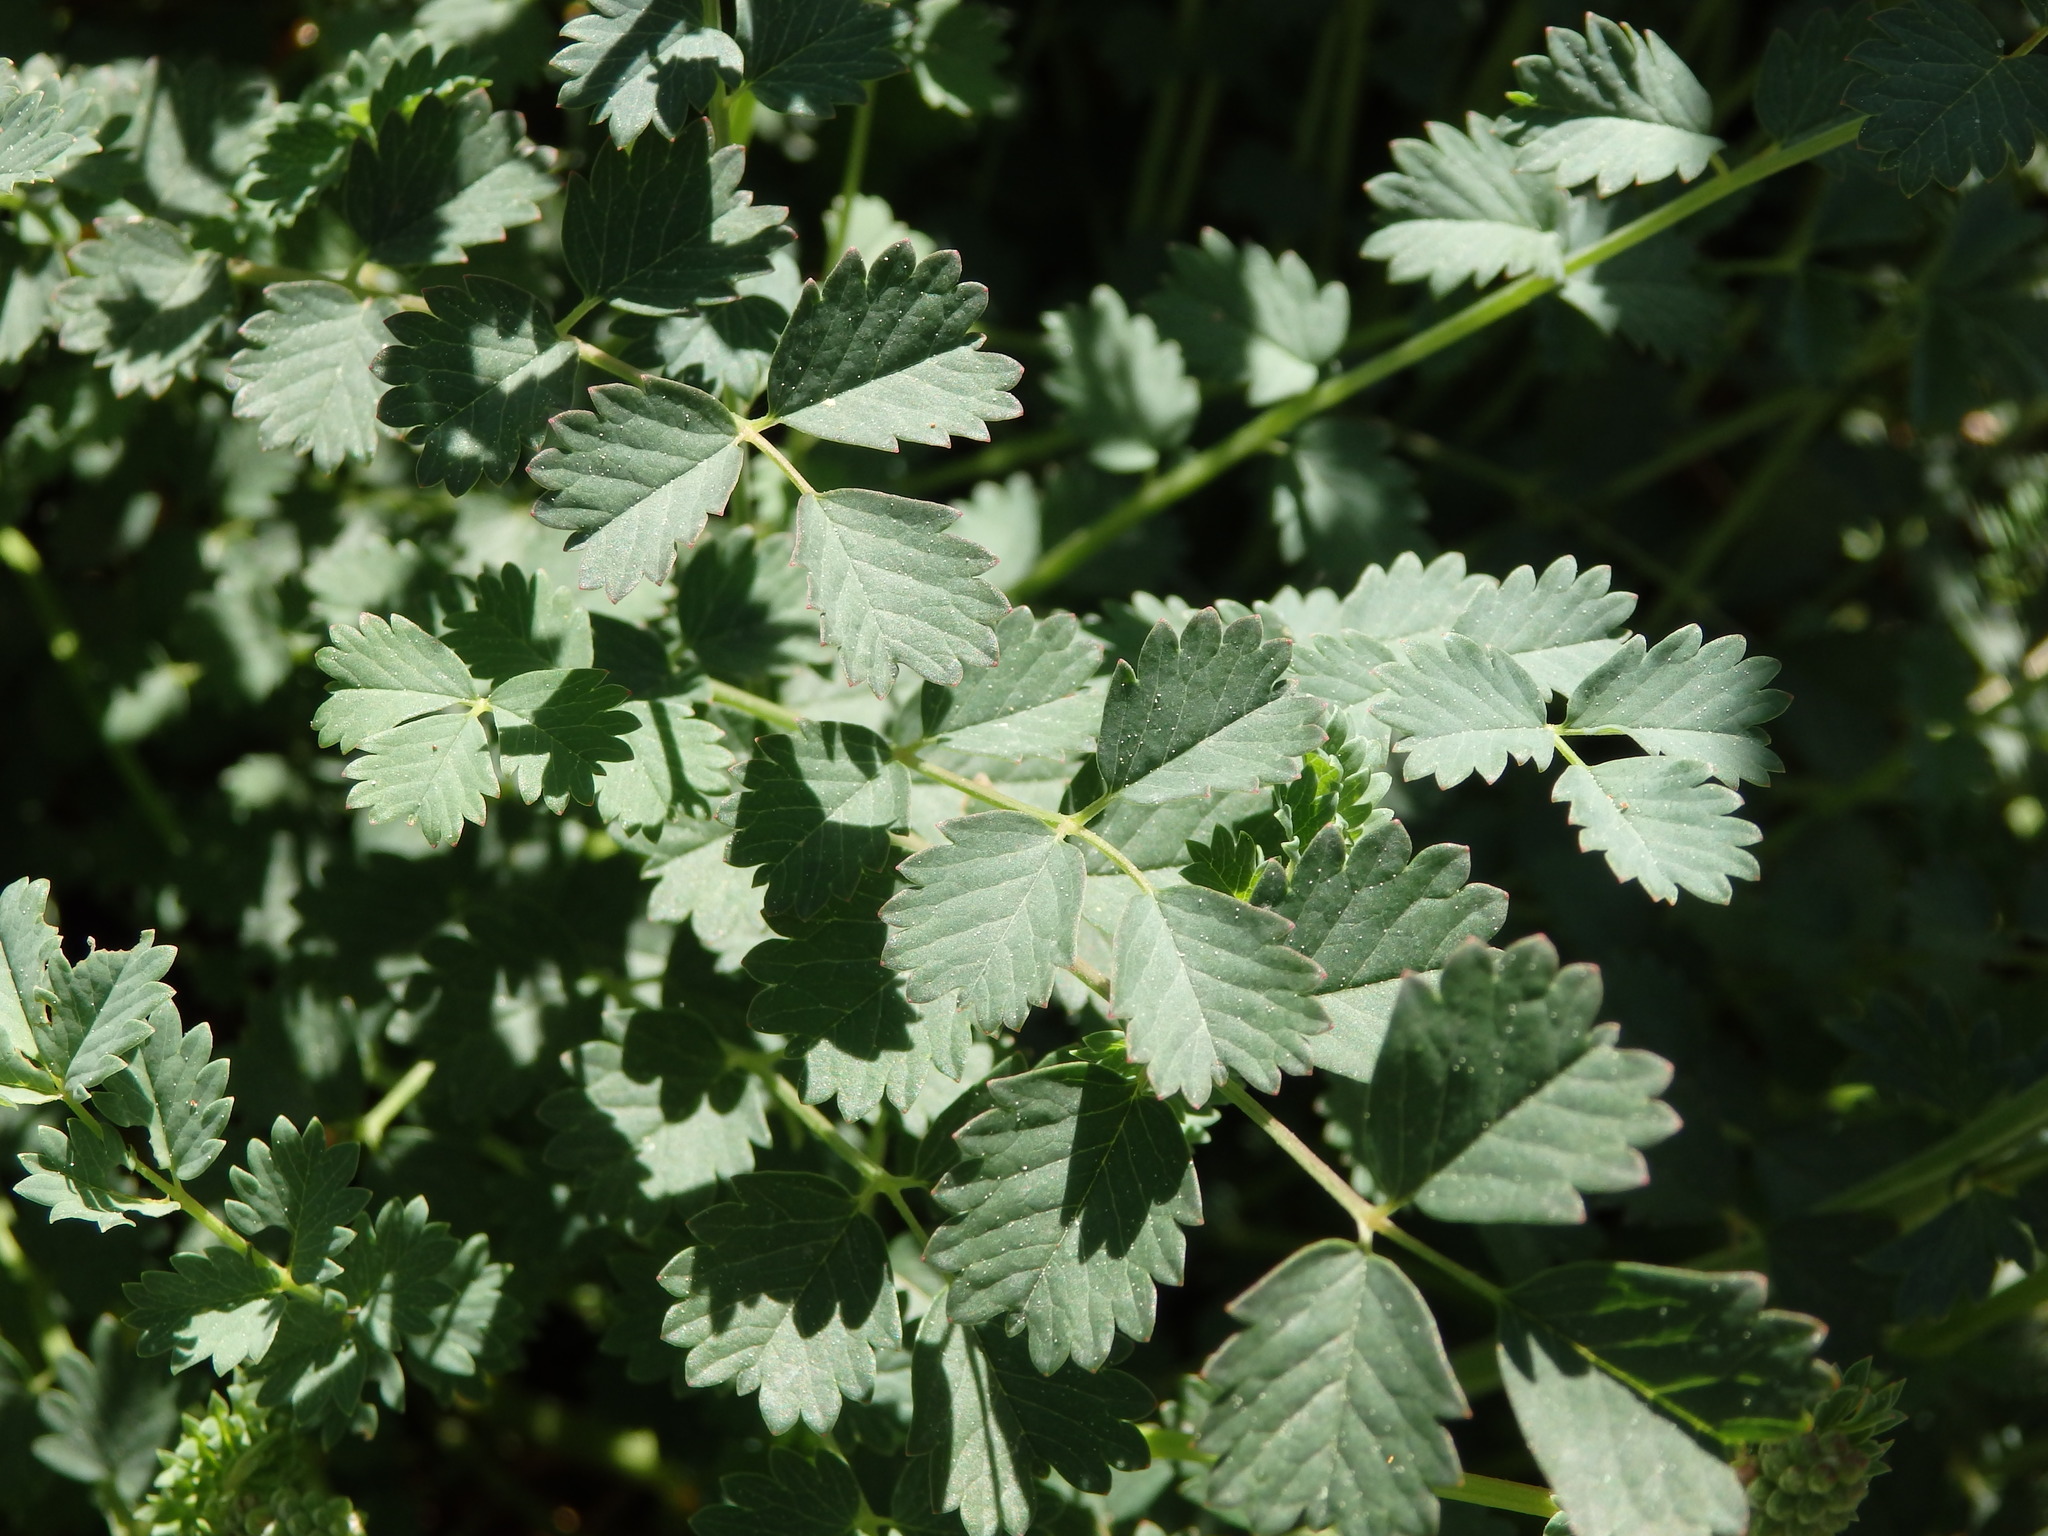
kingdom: Plantae
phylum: Tracheophyta
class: Magnoliopsida
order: Rosales
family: Rosaceae
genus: Poterium
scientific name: Poterium sanguisorba
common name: Salad burnet
